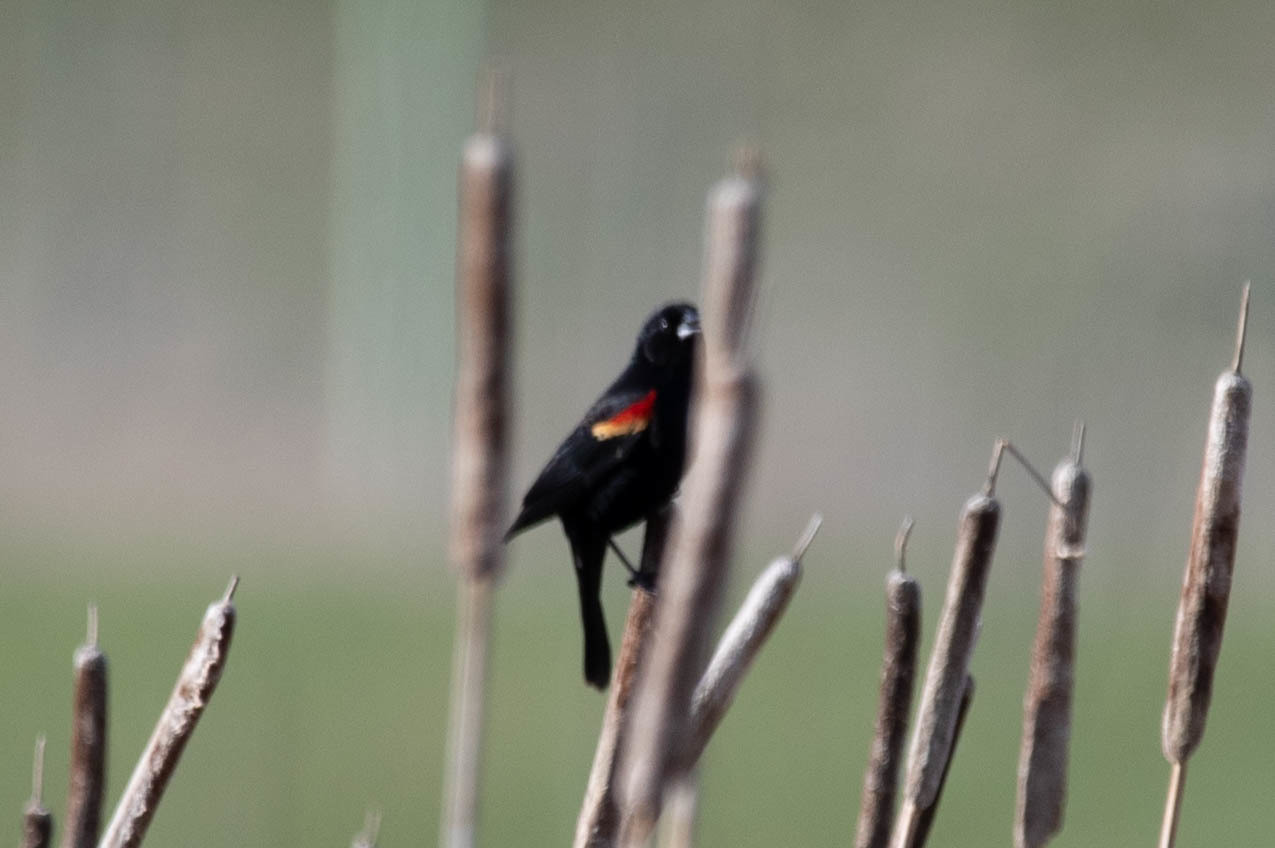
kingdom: Animalia
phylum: Chordata
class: Aves
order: Passeriformes
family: Icteridae
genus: Agelaius
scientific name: Agelaius phoeniceus
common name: Red-winged blackbird
